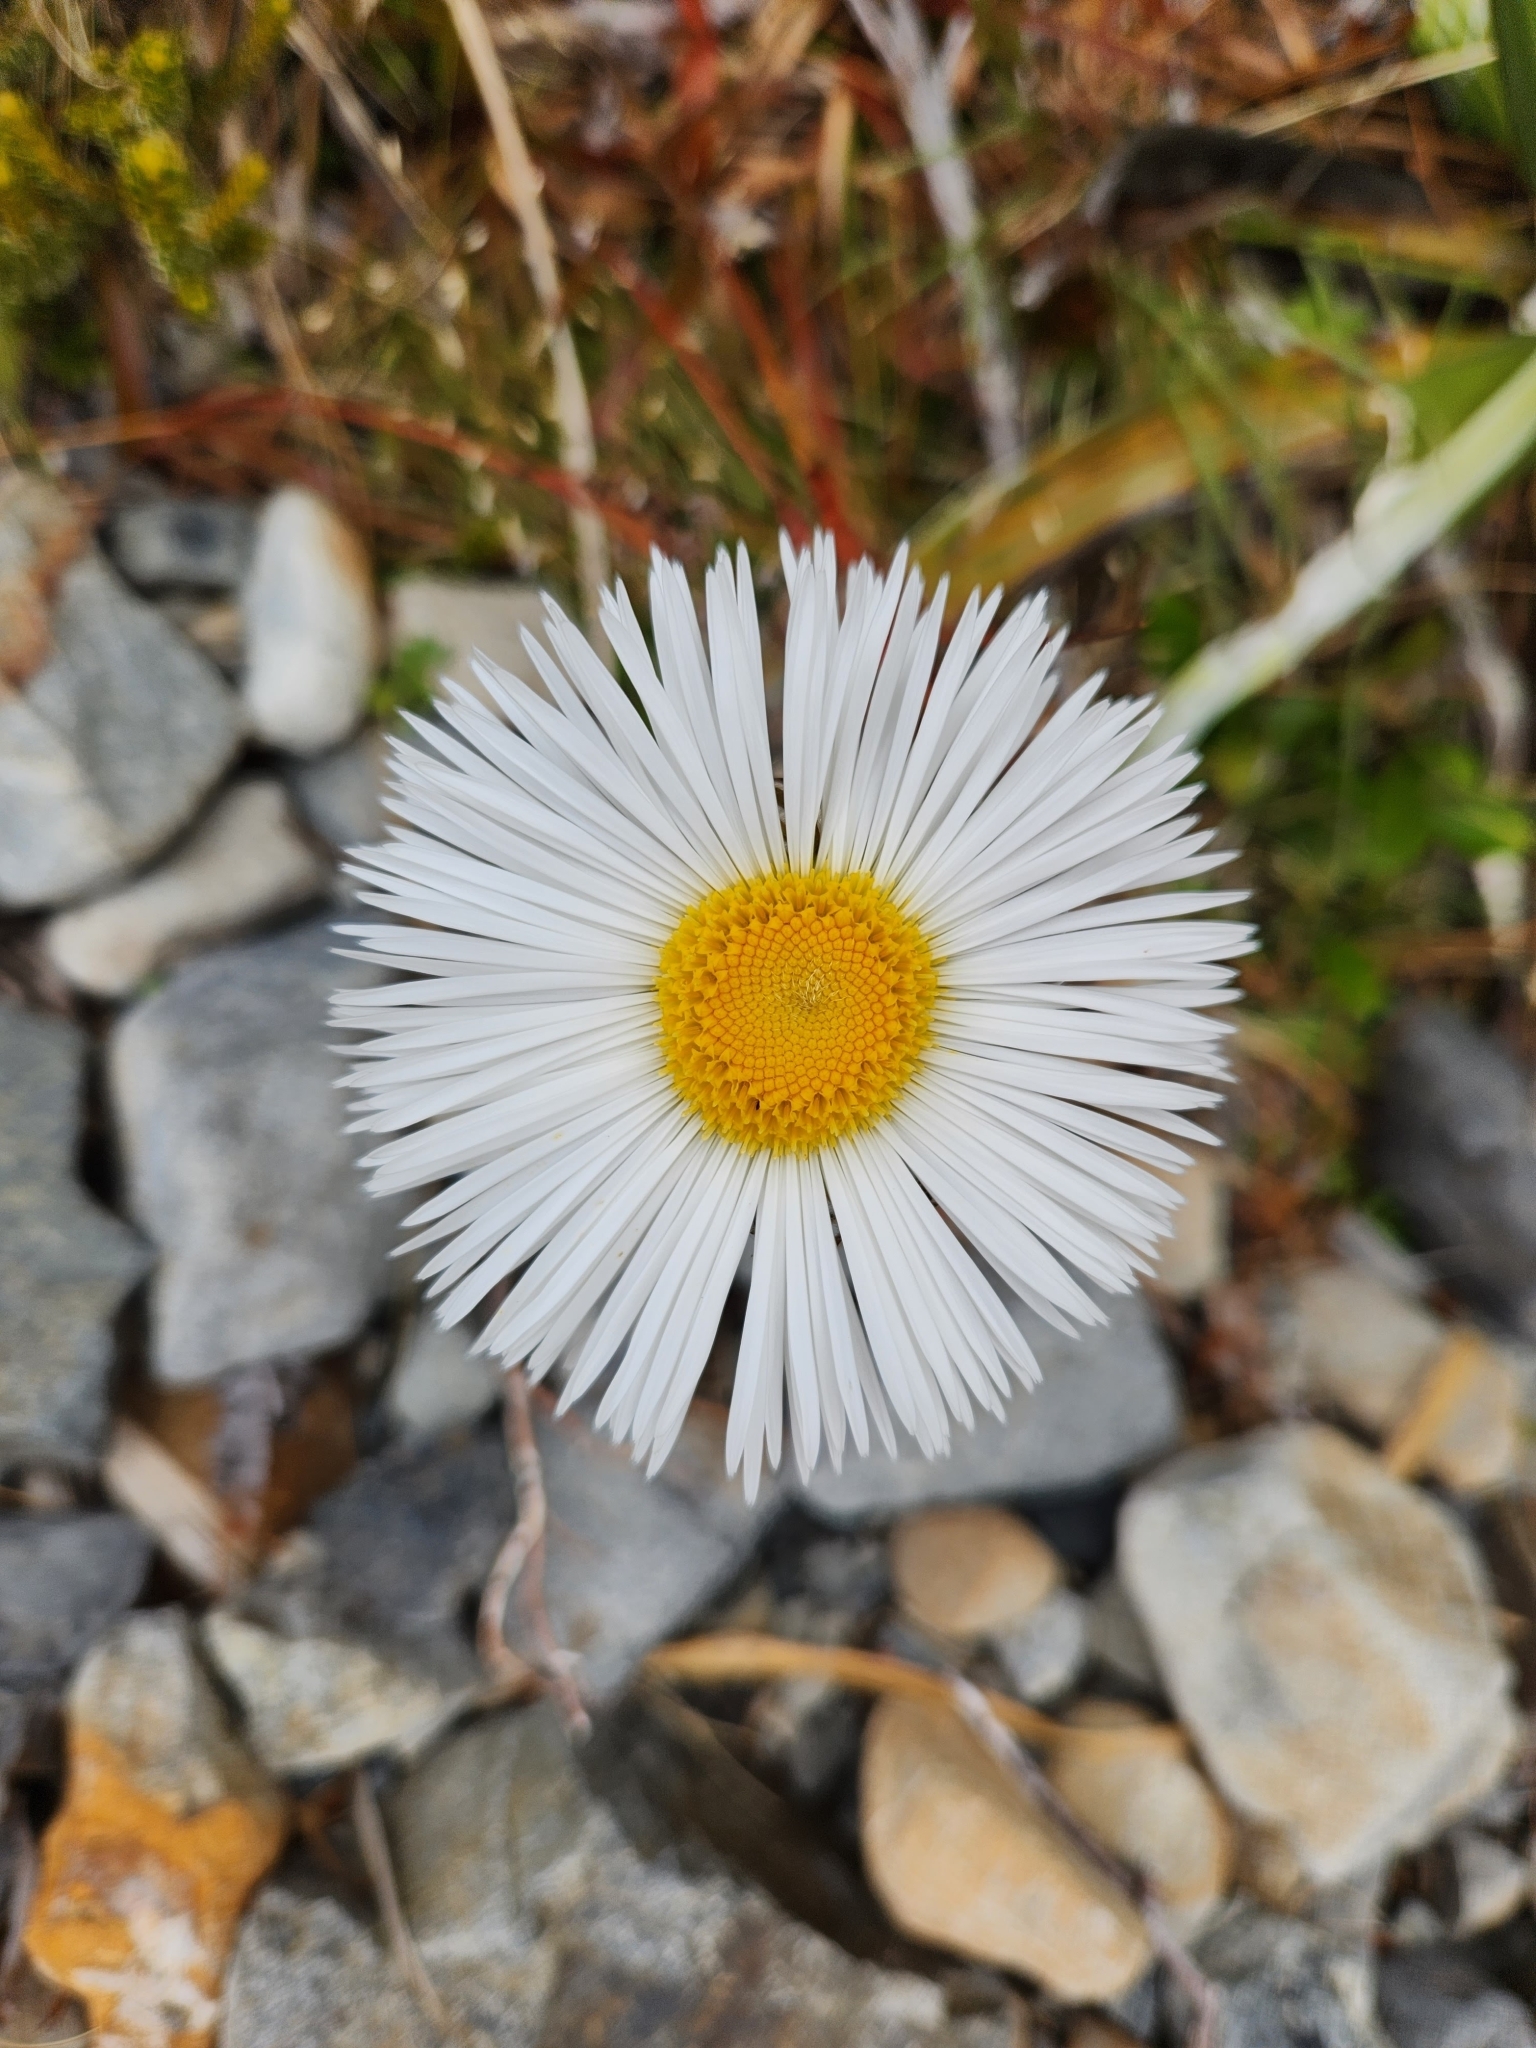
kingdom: Plantae
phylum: Tracheophyta
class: Magnoliopsida
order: Asterales
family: Asteraceae
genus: Celmisia
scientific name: Celmisia semicordata
